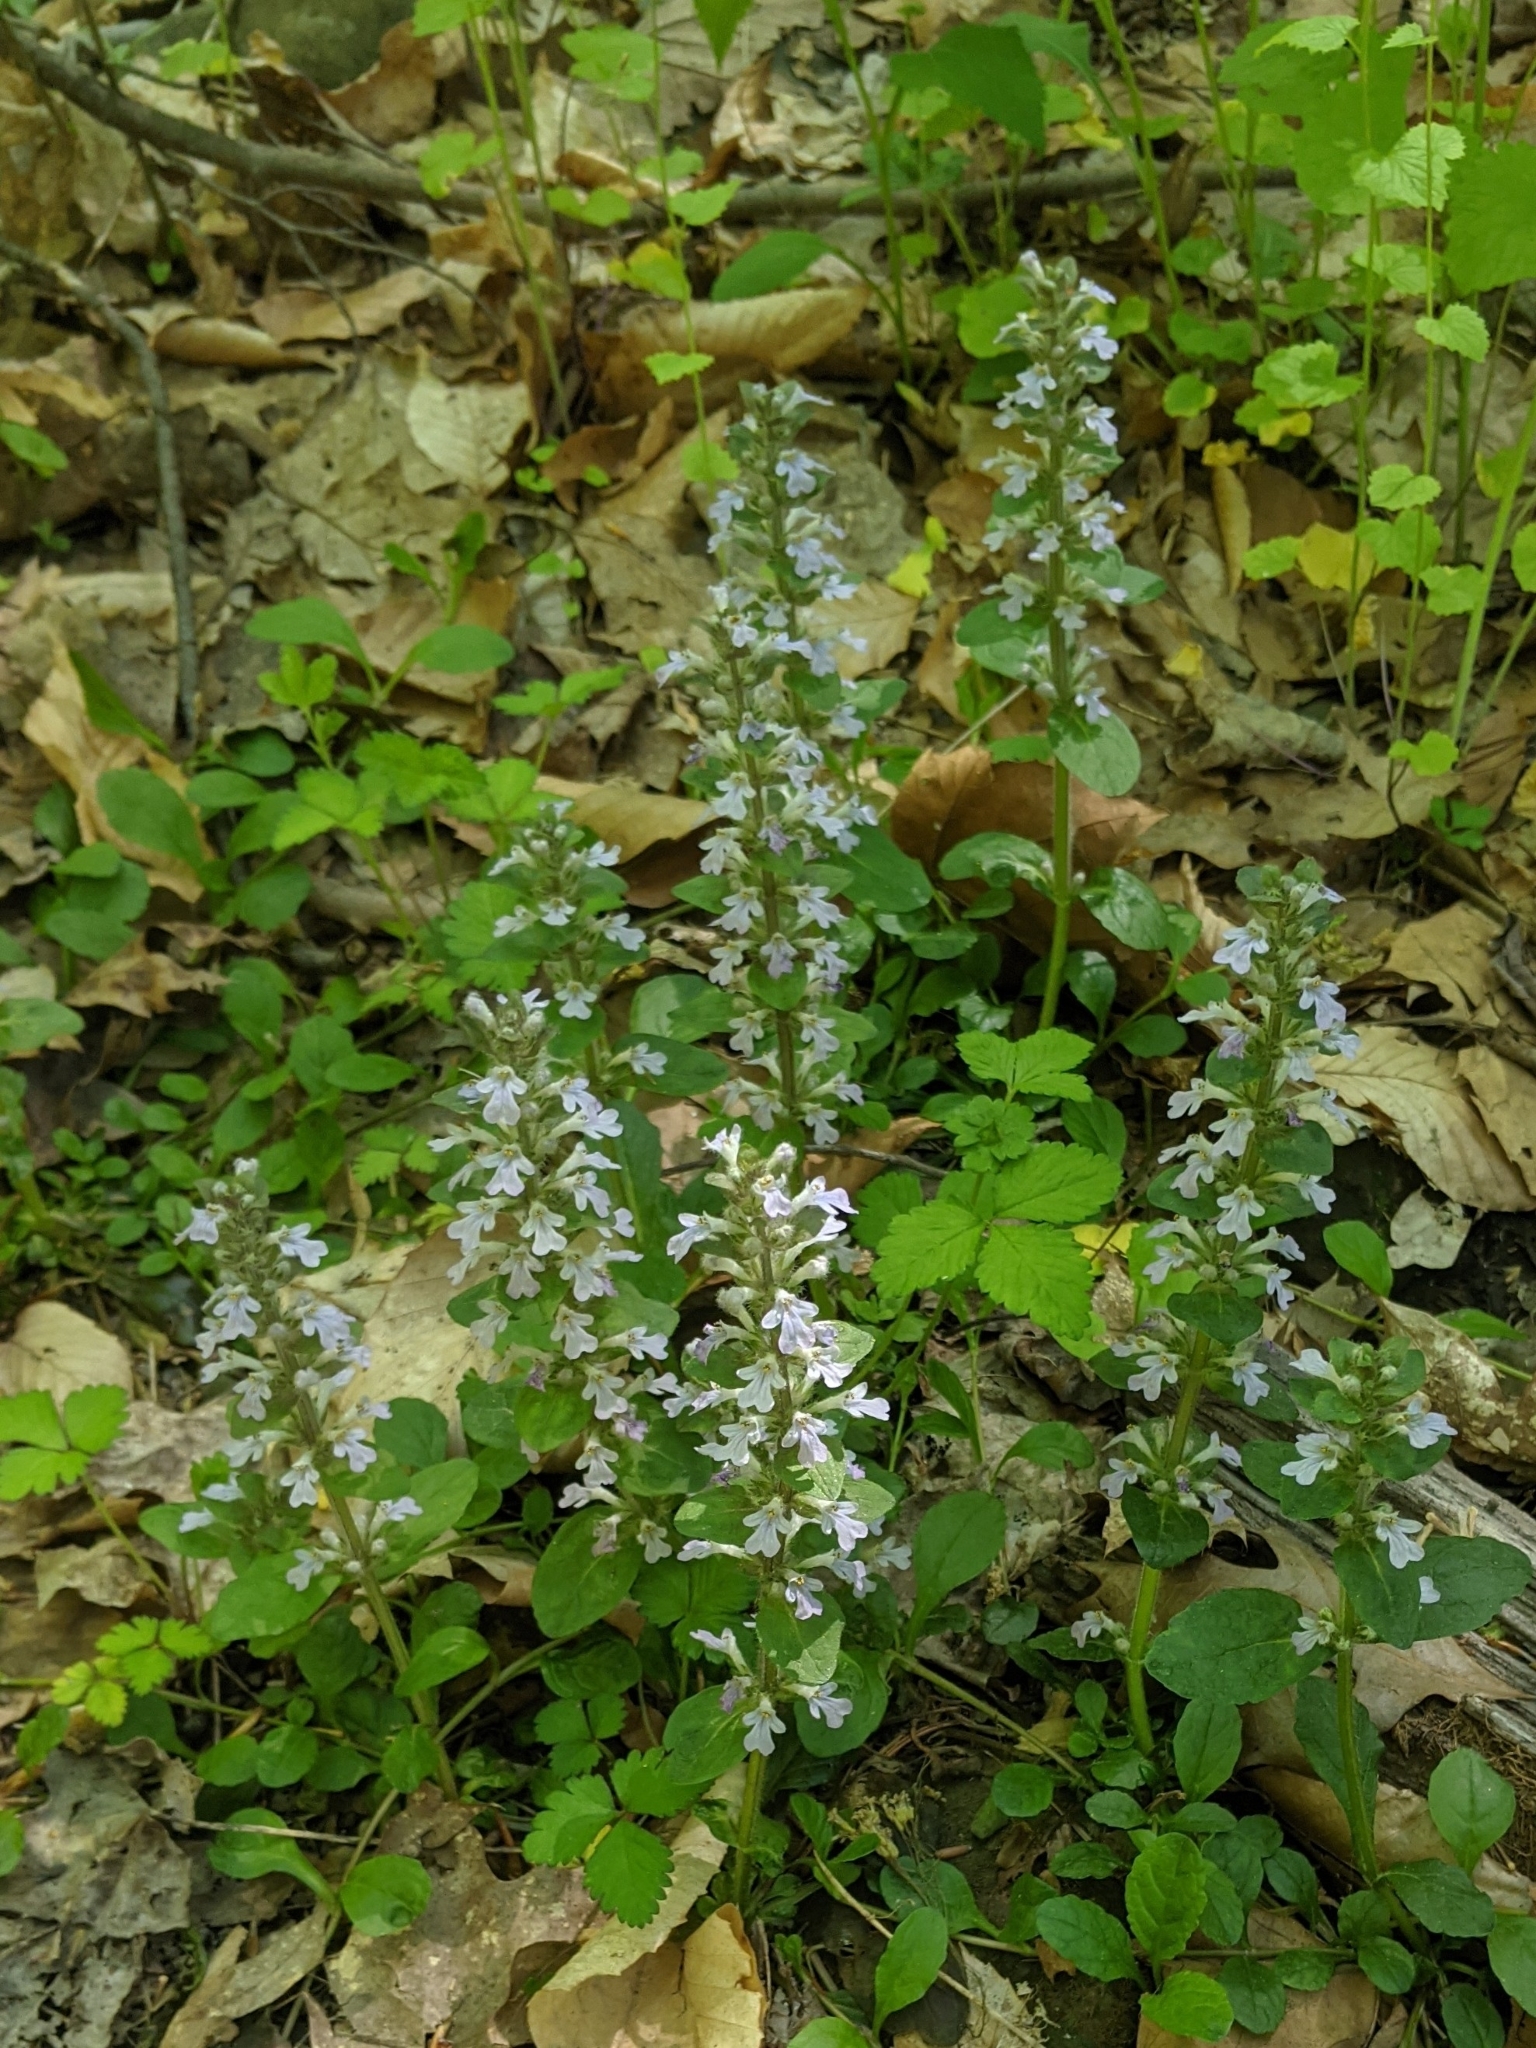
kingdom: Plantae
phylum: Tracheophyta
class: Magnoliopsida
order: Lamiales
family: Lamiaceae
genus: Ajuga
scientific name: Ajuga reptans
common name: Bugle
